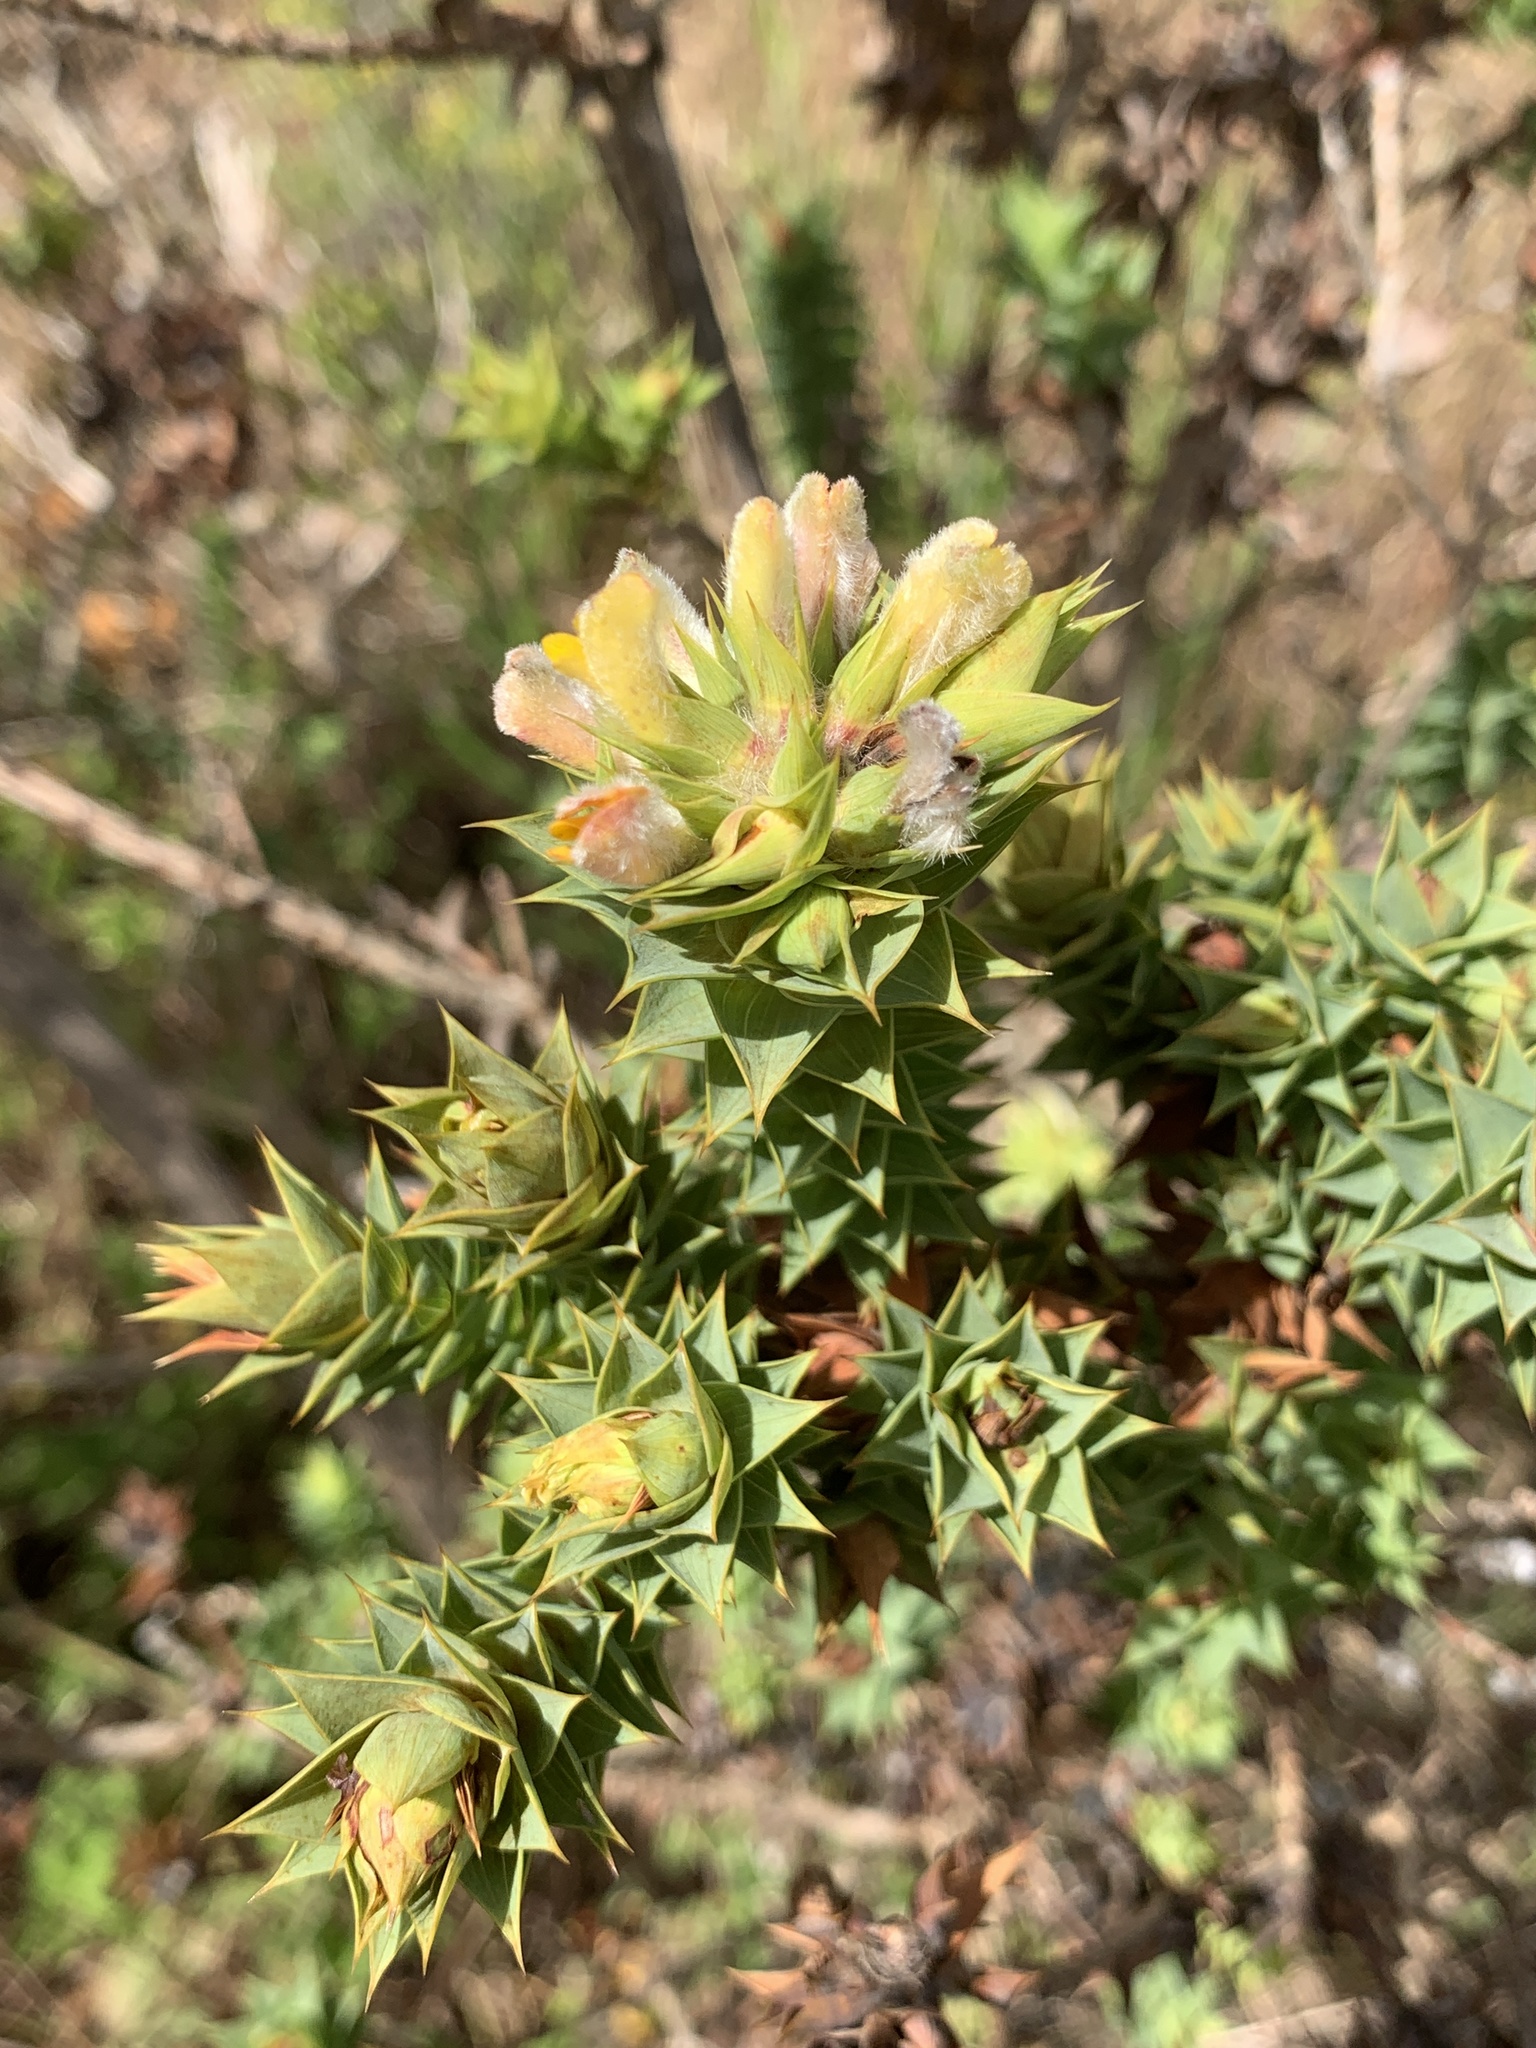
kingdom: Plantae
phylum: Tracheophyta
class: Magnoliopsida
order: Fabales
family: Fabaceae
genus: Aspalathus
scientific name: Aspalathus cordata
